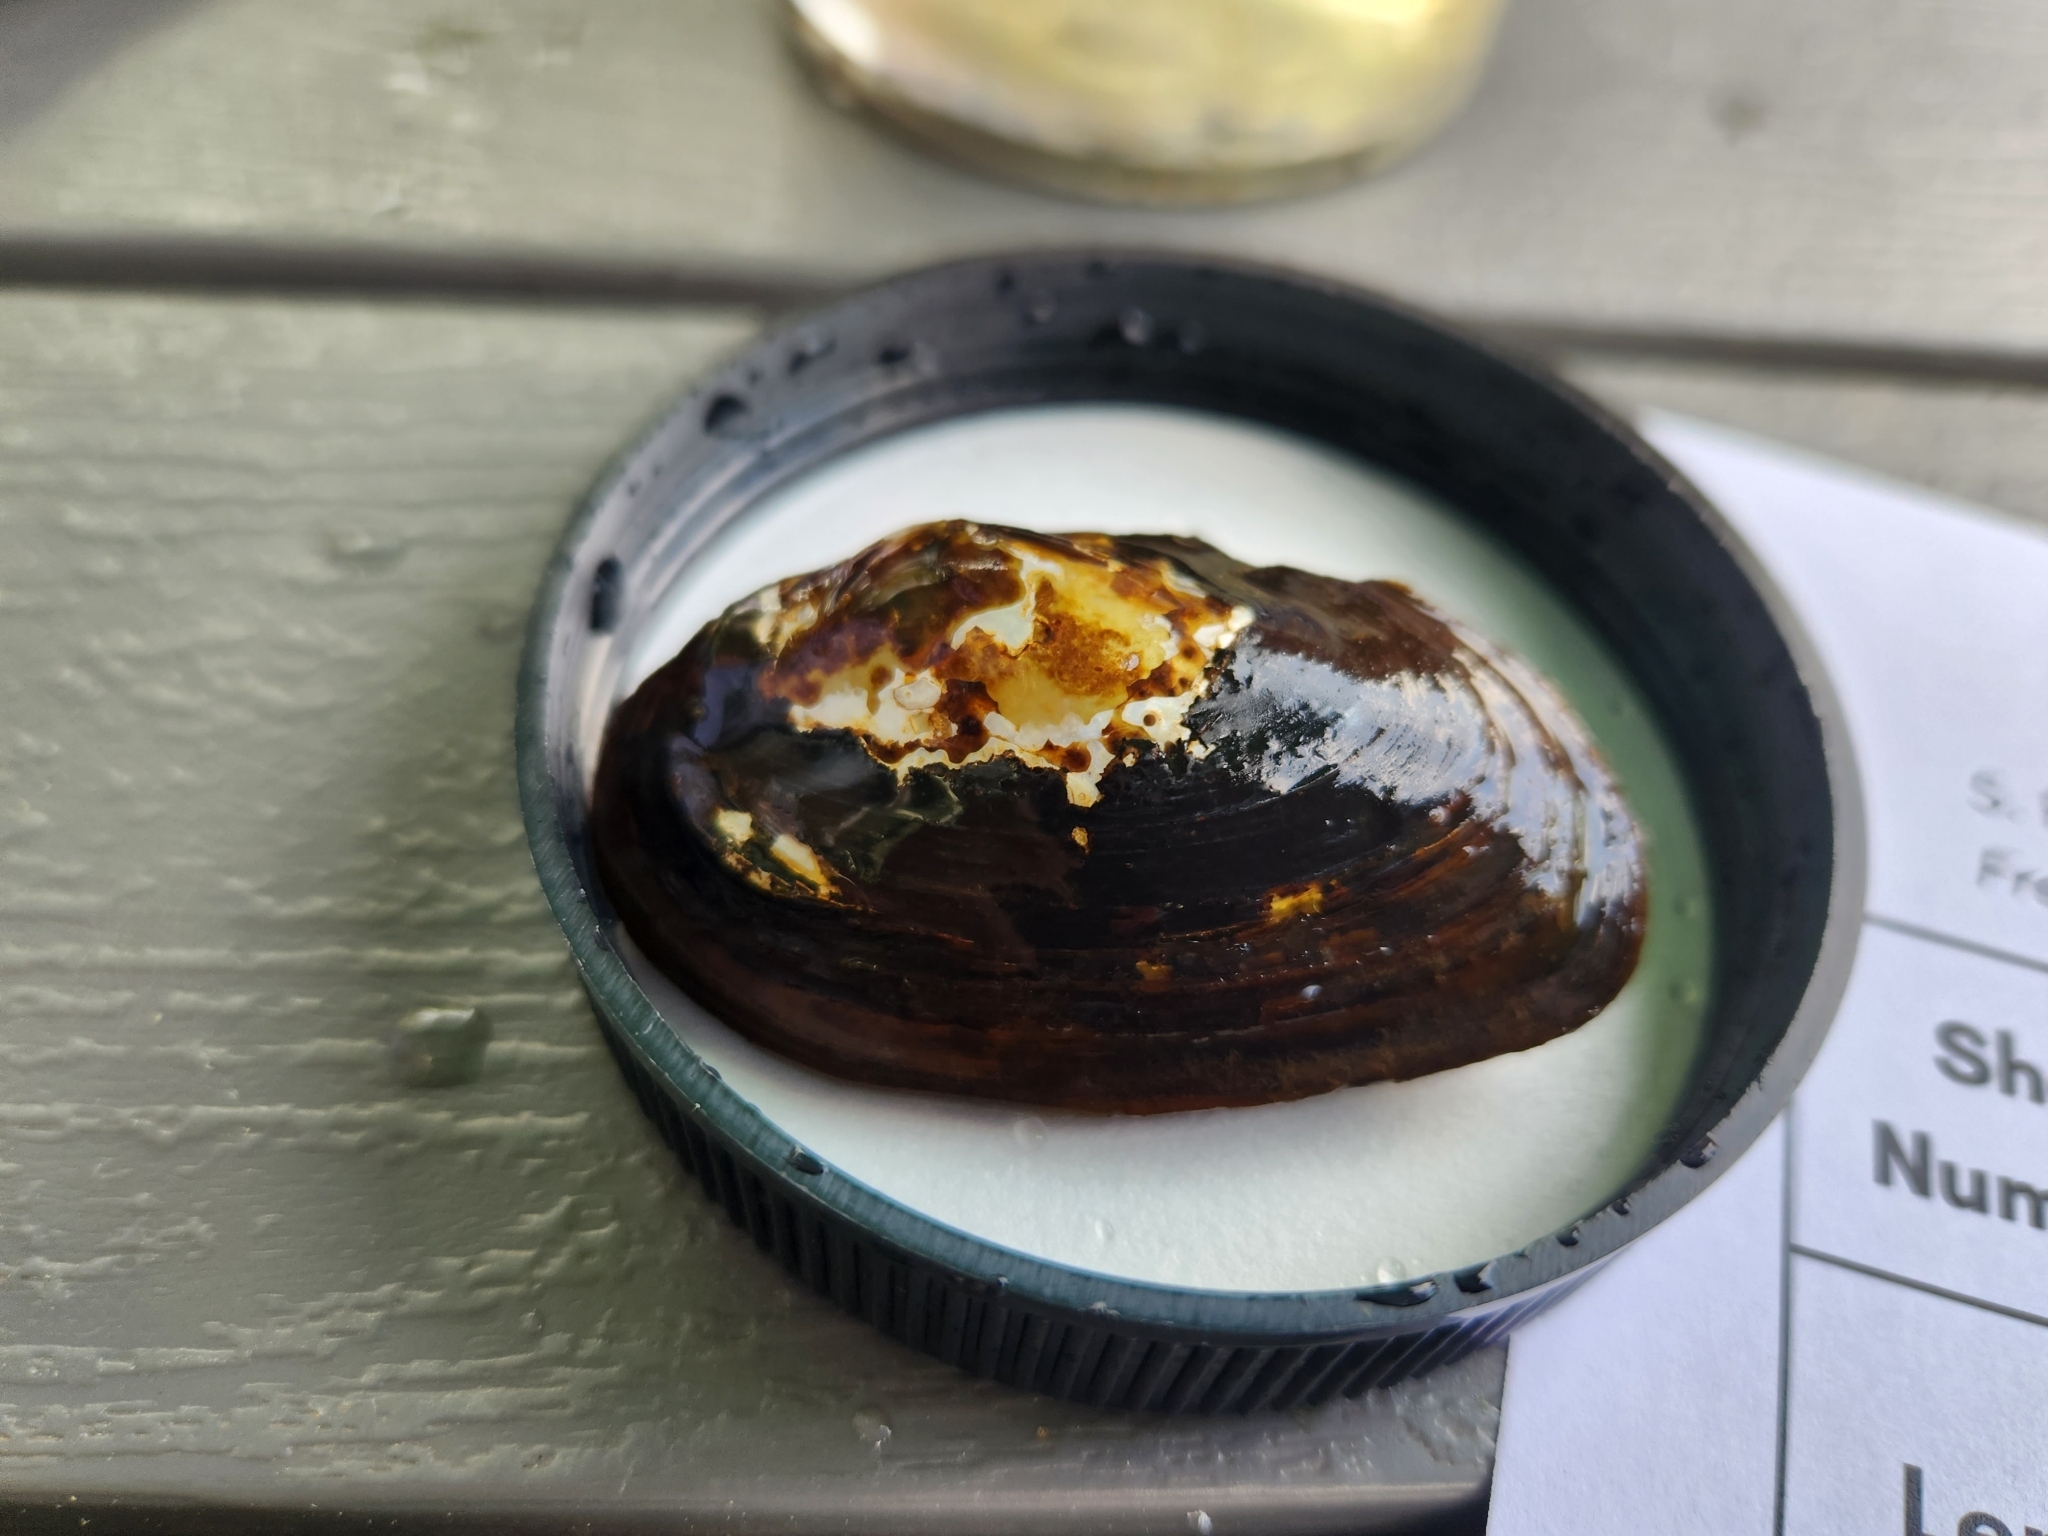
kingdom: Animalia
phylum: Mollusca
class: Bivalvia
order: Unionida
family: Unionidae
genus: Utterbackiana
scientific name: Utterbackiana implicata
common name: Alewife floater
